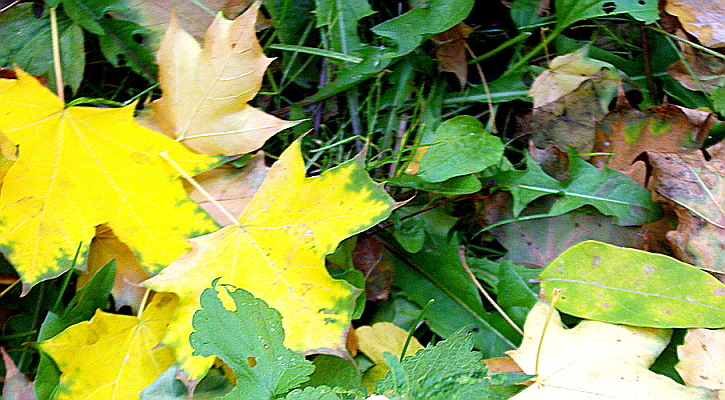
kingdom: Plantae
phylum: Tracheophyta
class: Magnoliopsida
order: Asterales
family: Asteraceae
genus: Taraxacum
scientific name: Taraxacum officinale
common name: Common dandelion
